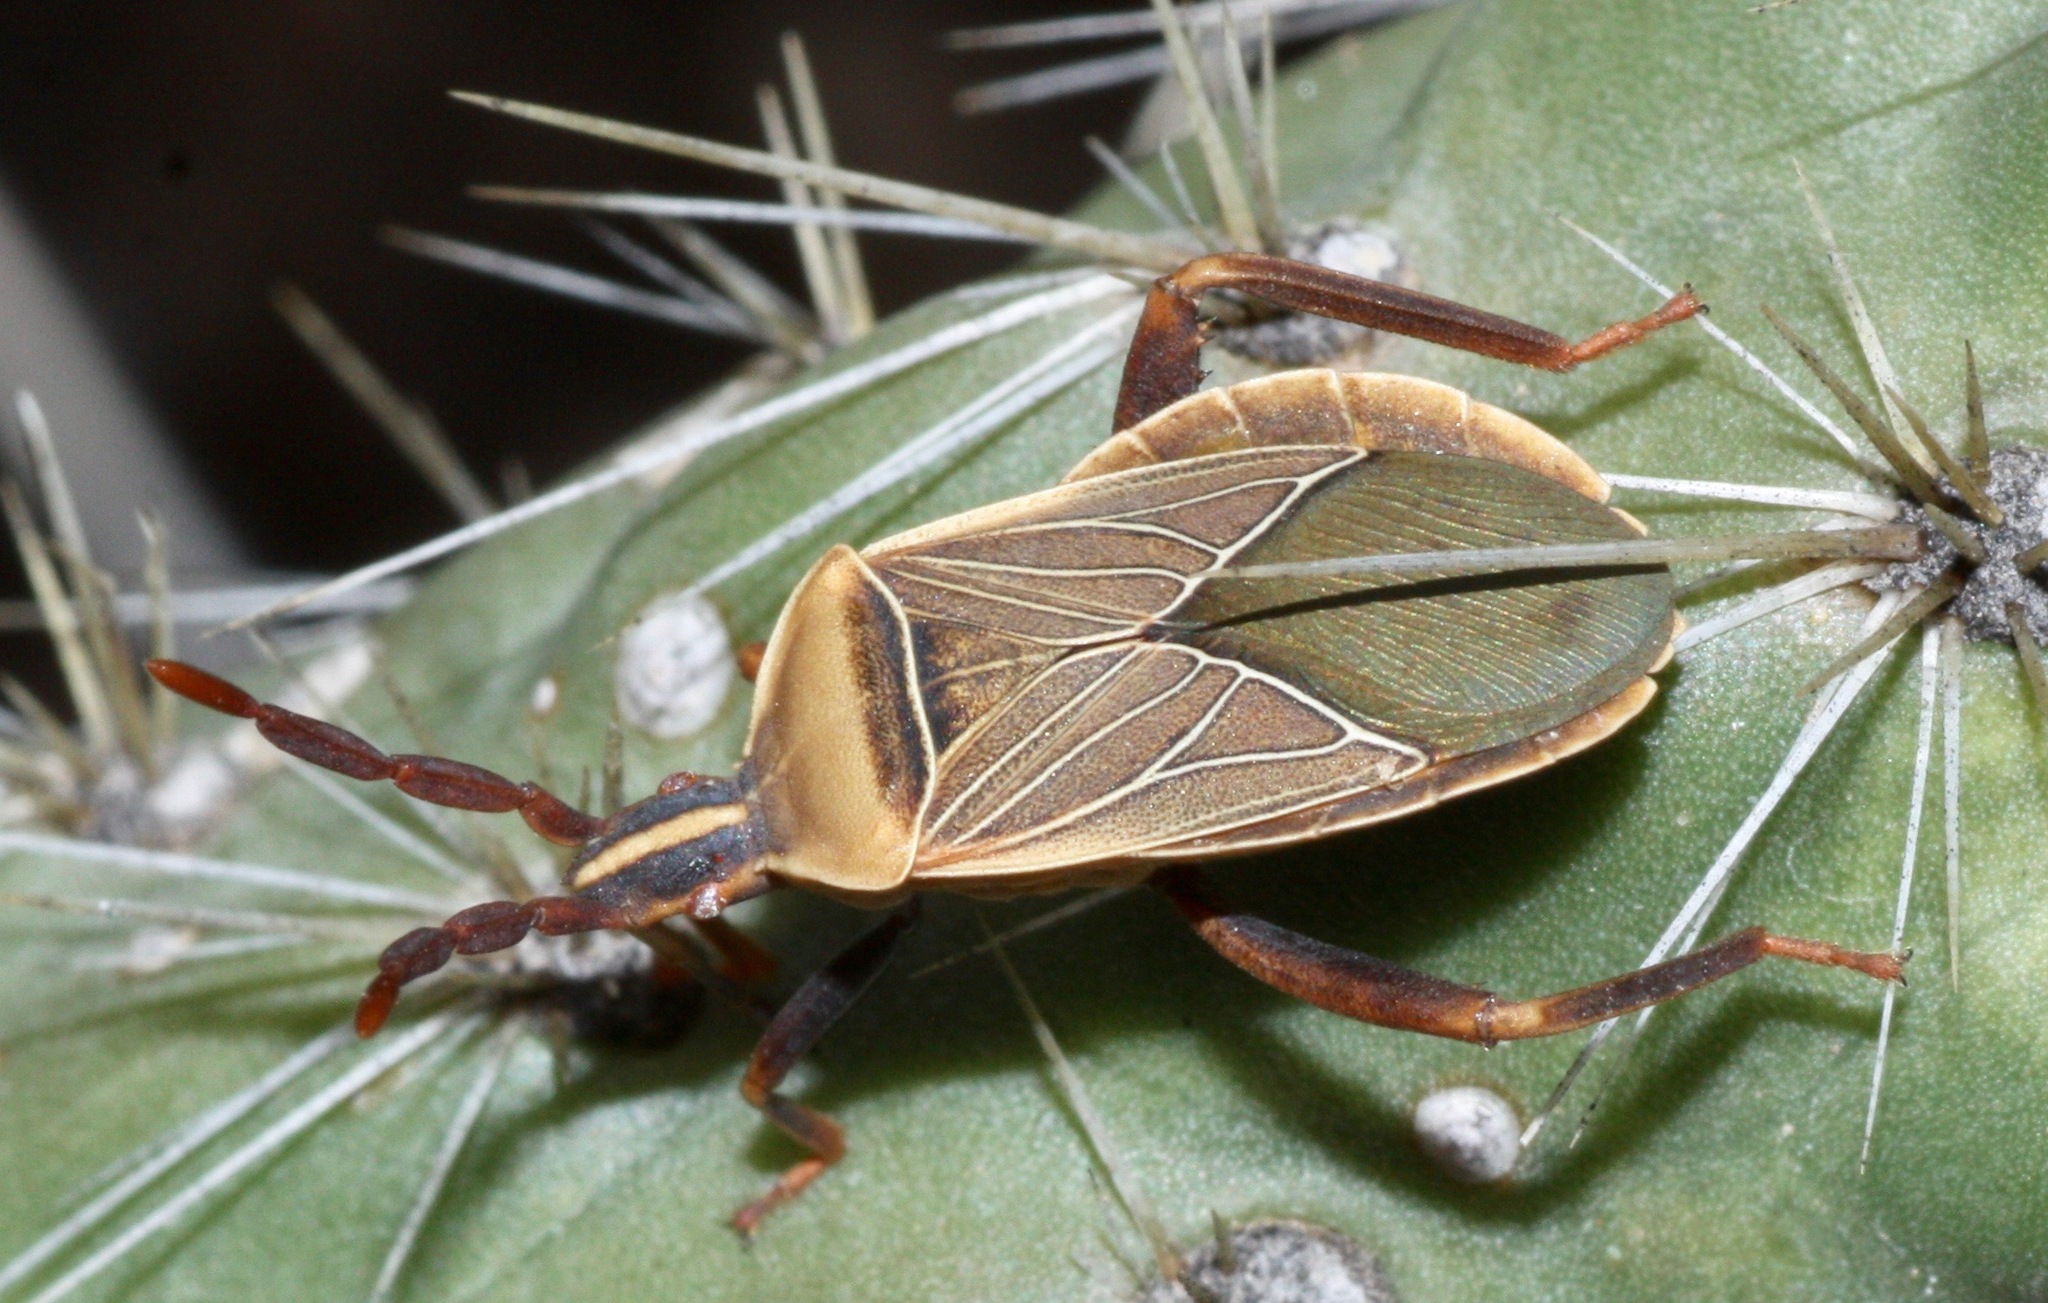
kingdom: Animalia
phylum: Arthropoda
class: Insecta
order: Hemiptera
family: Coreidae
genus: Chelinidea
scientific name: Chelinidea vittiger
